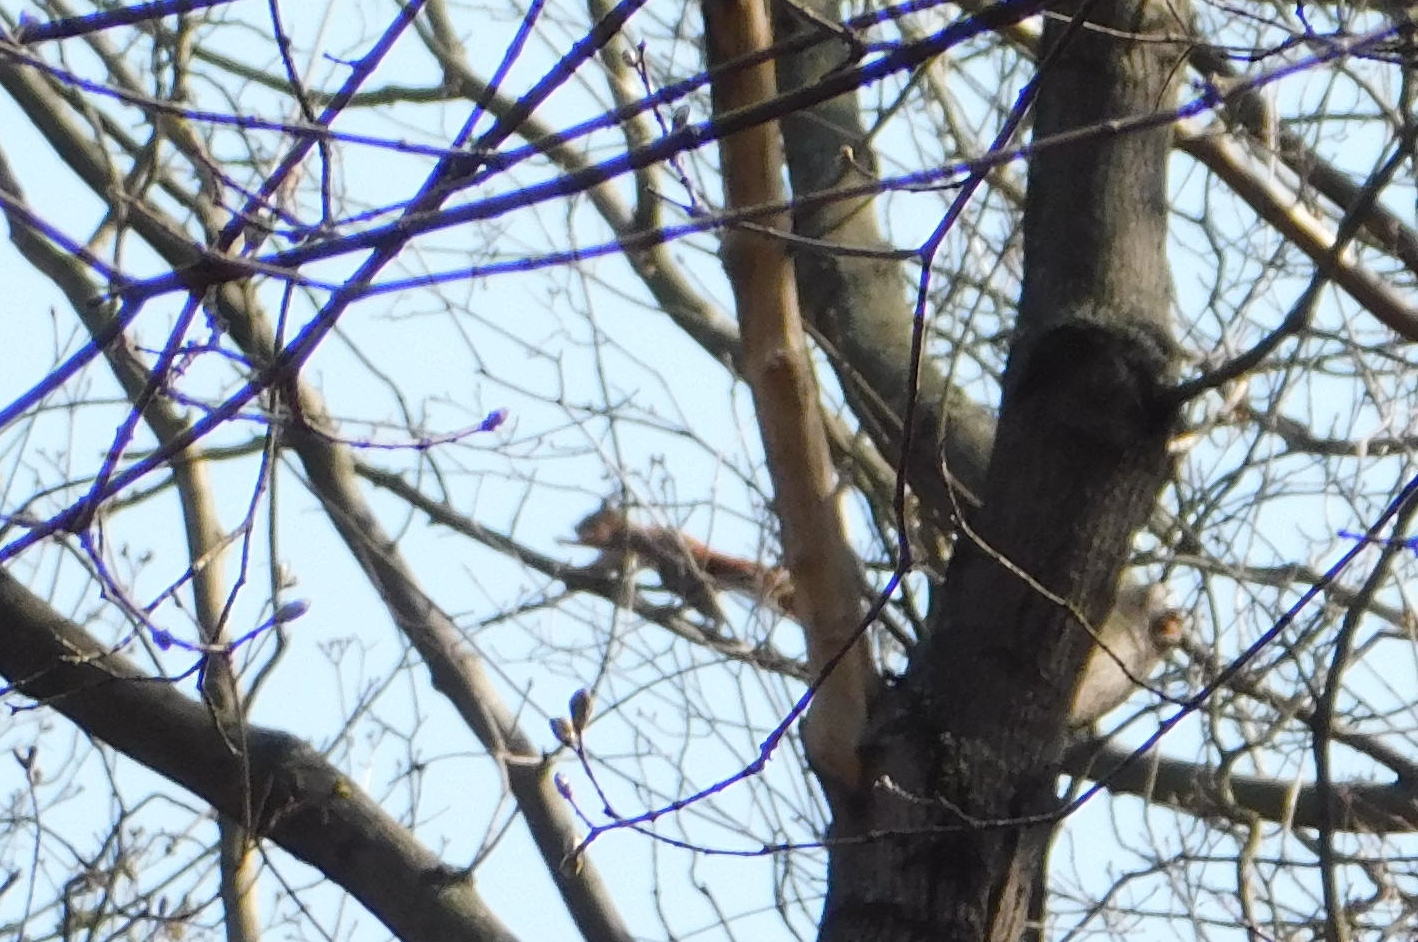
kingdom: Animalia
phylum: Chordata
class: Mammalia
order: Rodentia
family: Sciuridae
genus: Sciurus
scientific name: Sciurus vulgaris
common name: Eurasian red squirrel
